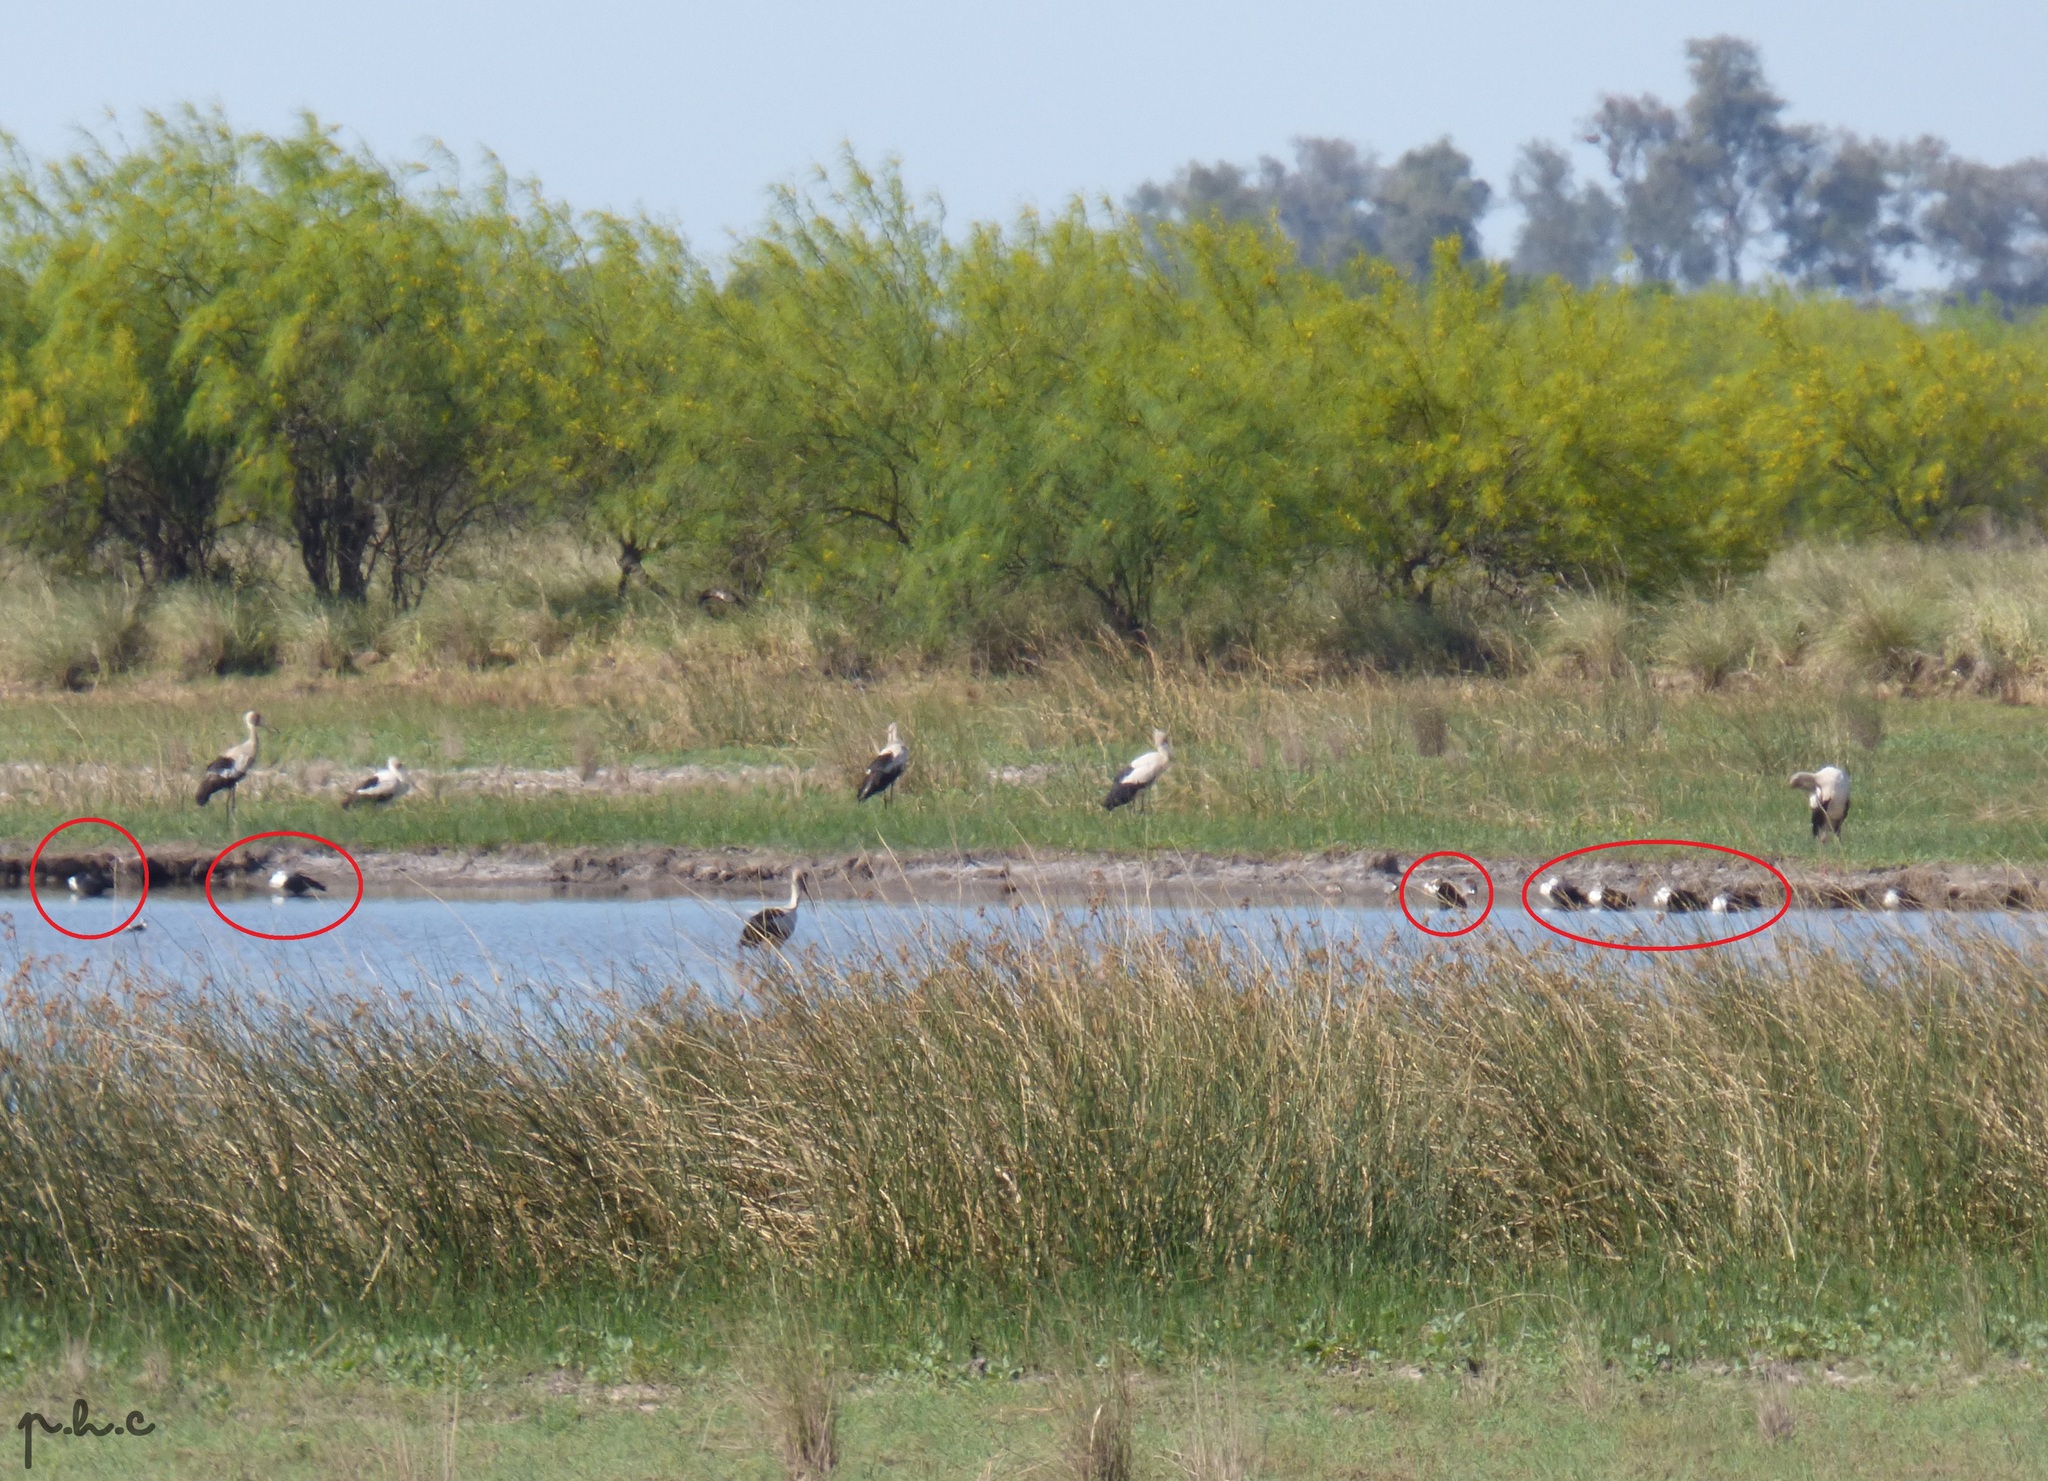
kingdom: Animalia
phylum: Chordata
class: Aves
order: Anseriformes
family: Anatidae
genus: Sarkidiornis
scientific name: Sarkidiornis sylvicola
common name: Comb duck
